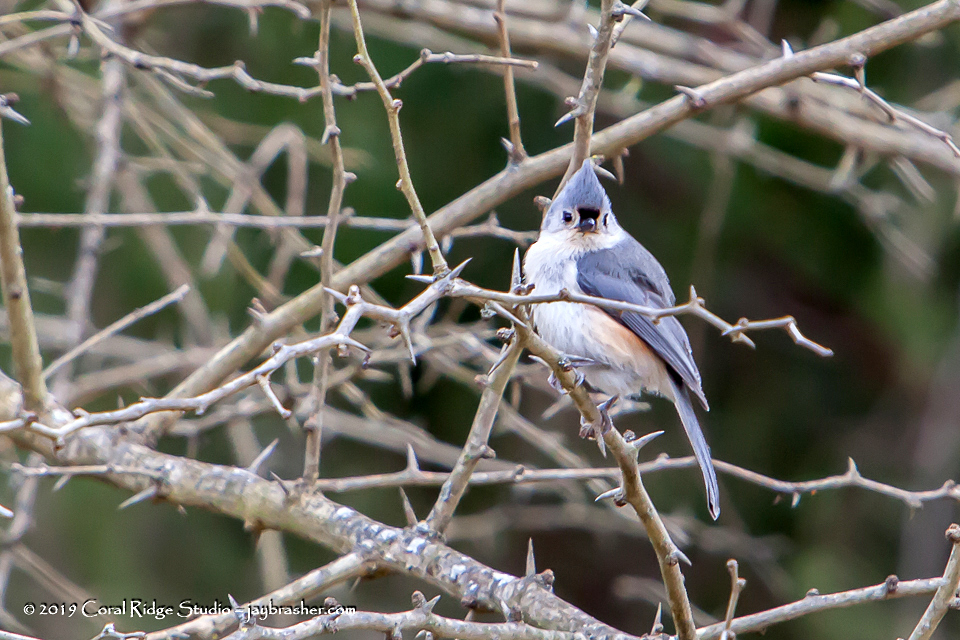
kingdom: Animalia
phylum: Chordata
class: Aves
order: Passeriformes
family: Paridae
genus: Baeolophus
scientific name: Baeolophus bicolor
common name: Tufted titmouse
